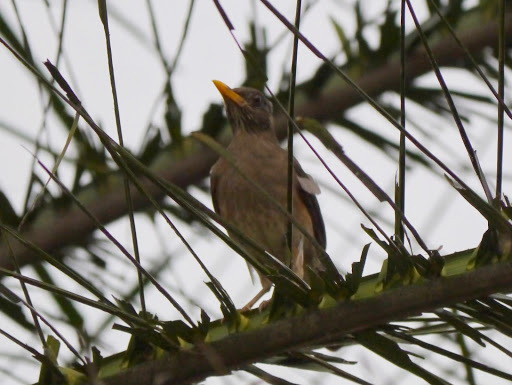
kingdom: Animalia
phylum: Chordata
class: Aves
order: Passeriformes
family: Turdidae
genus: Turdus
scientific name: Turdus pelios
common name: African thrush
